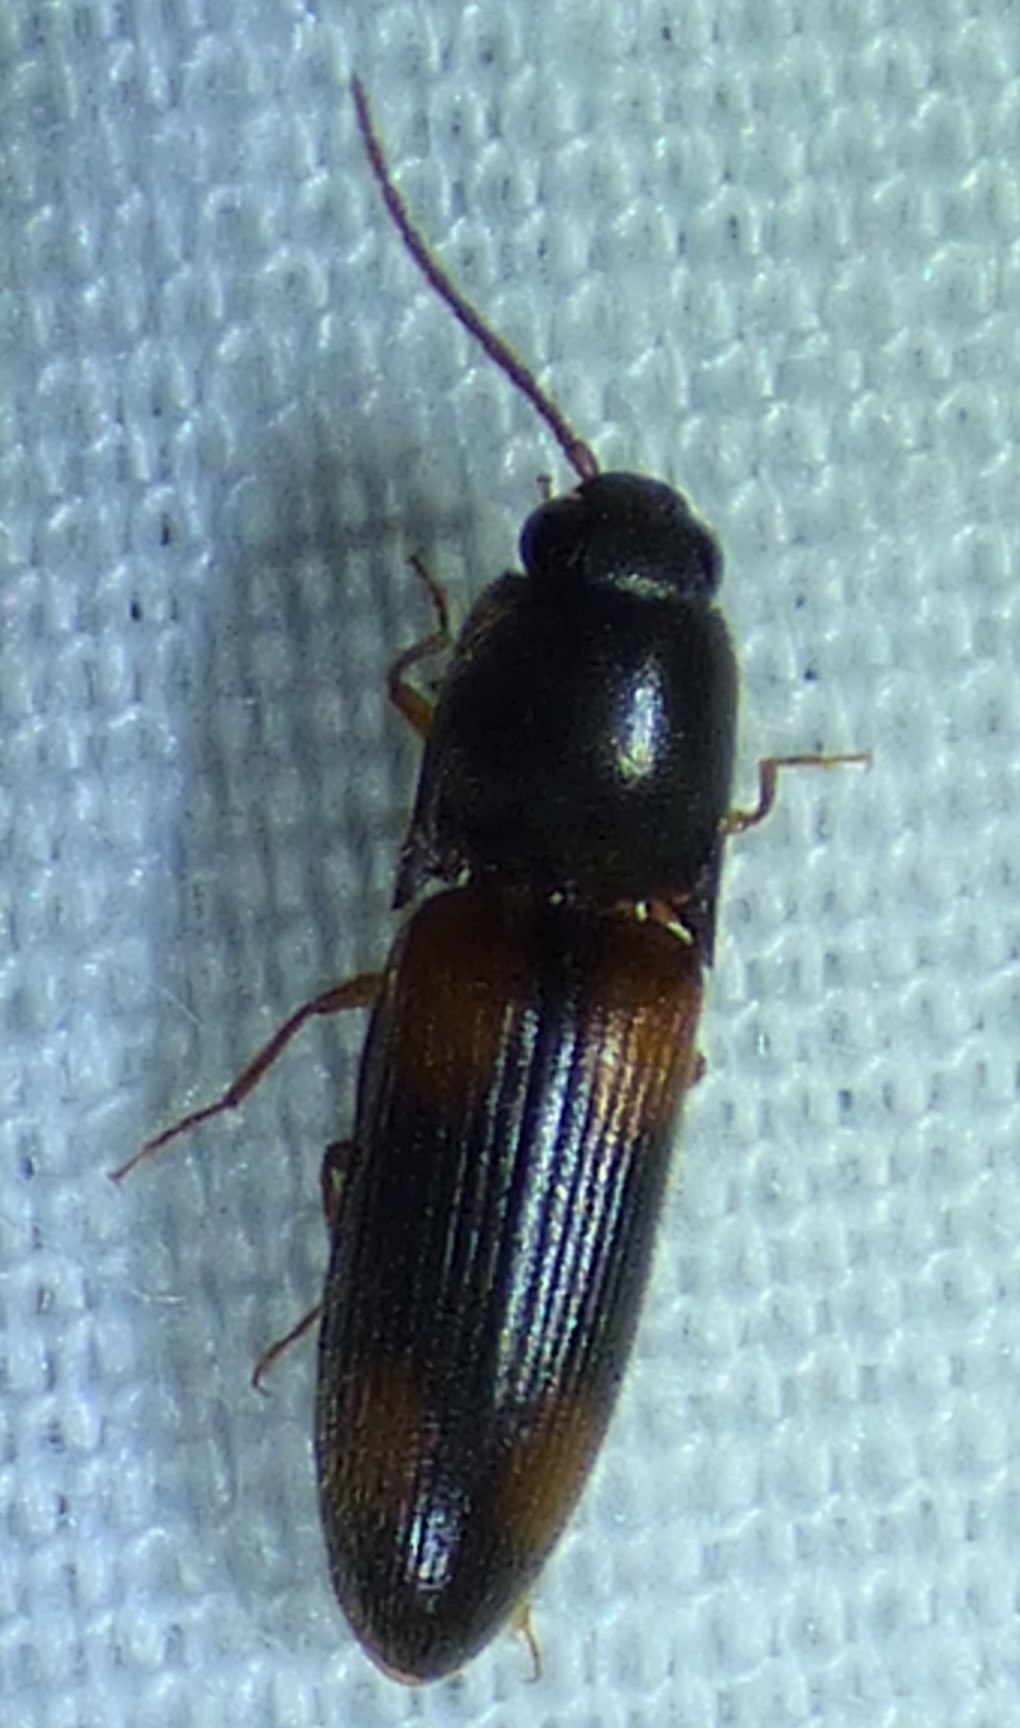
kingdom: Animalia
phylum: Arthropoda
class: Insecta
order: Coleoptera
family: Elateridae
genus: Anchastus
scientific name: Anchastus binus
